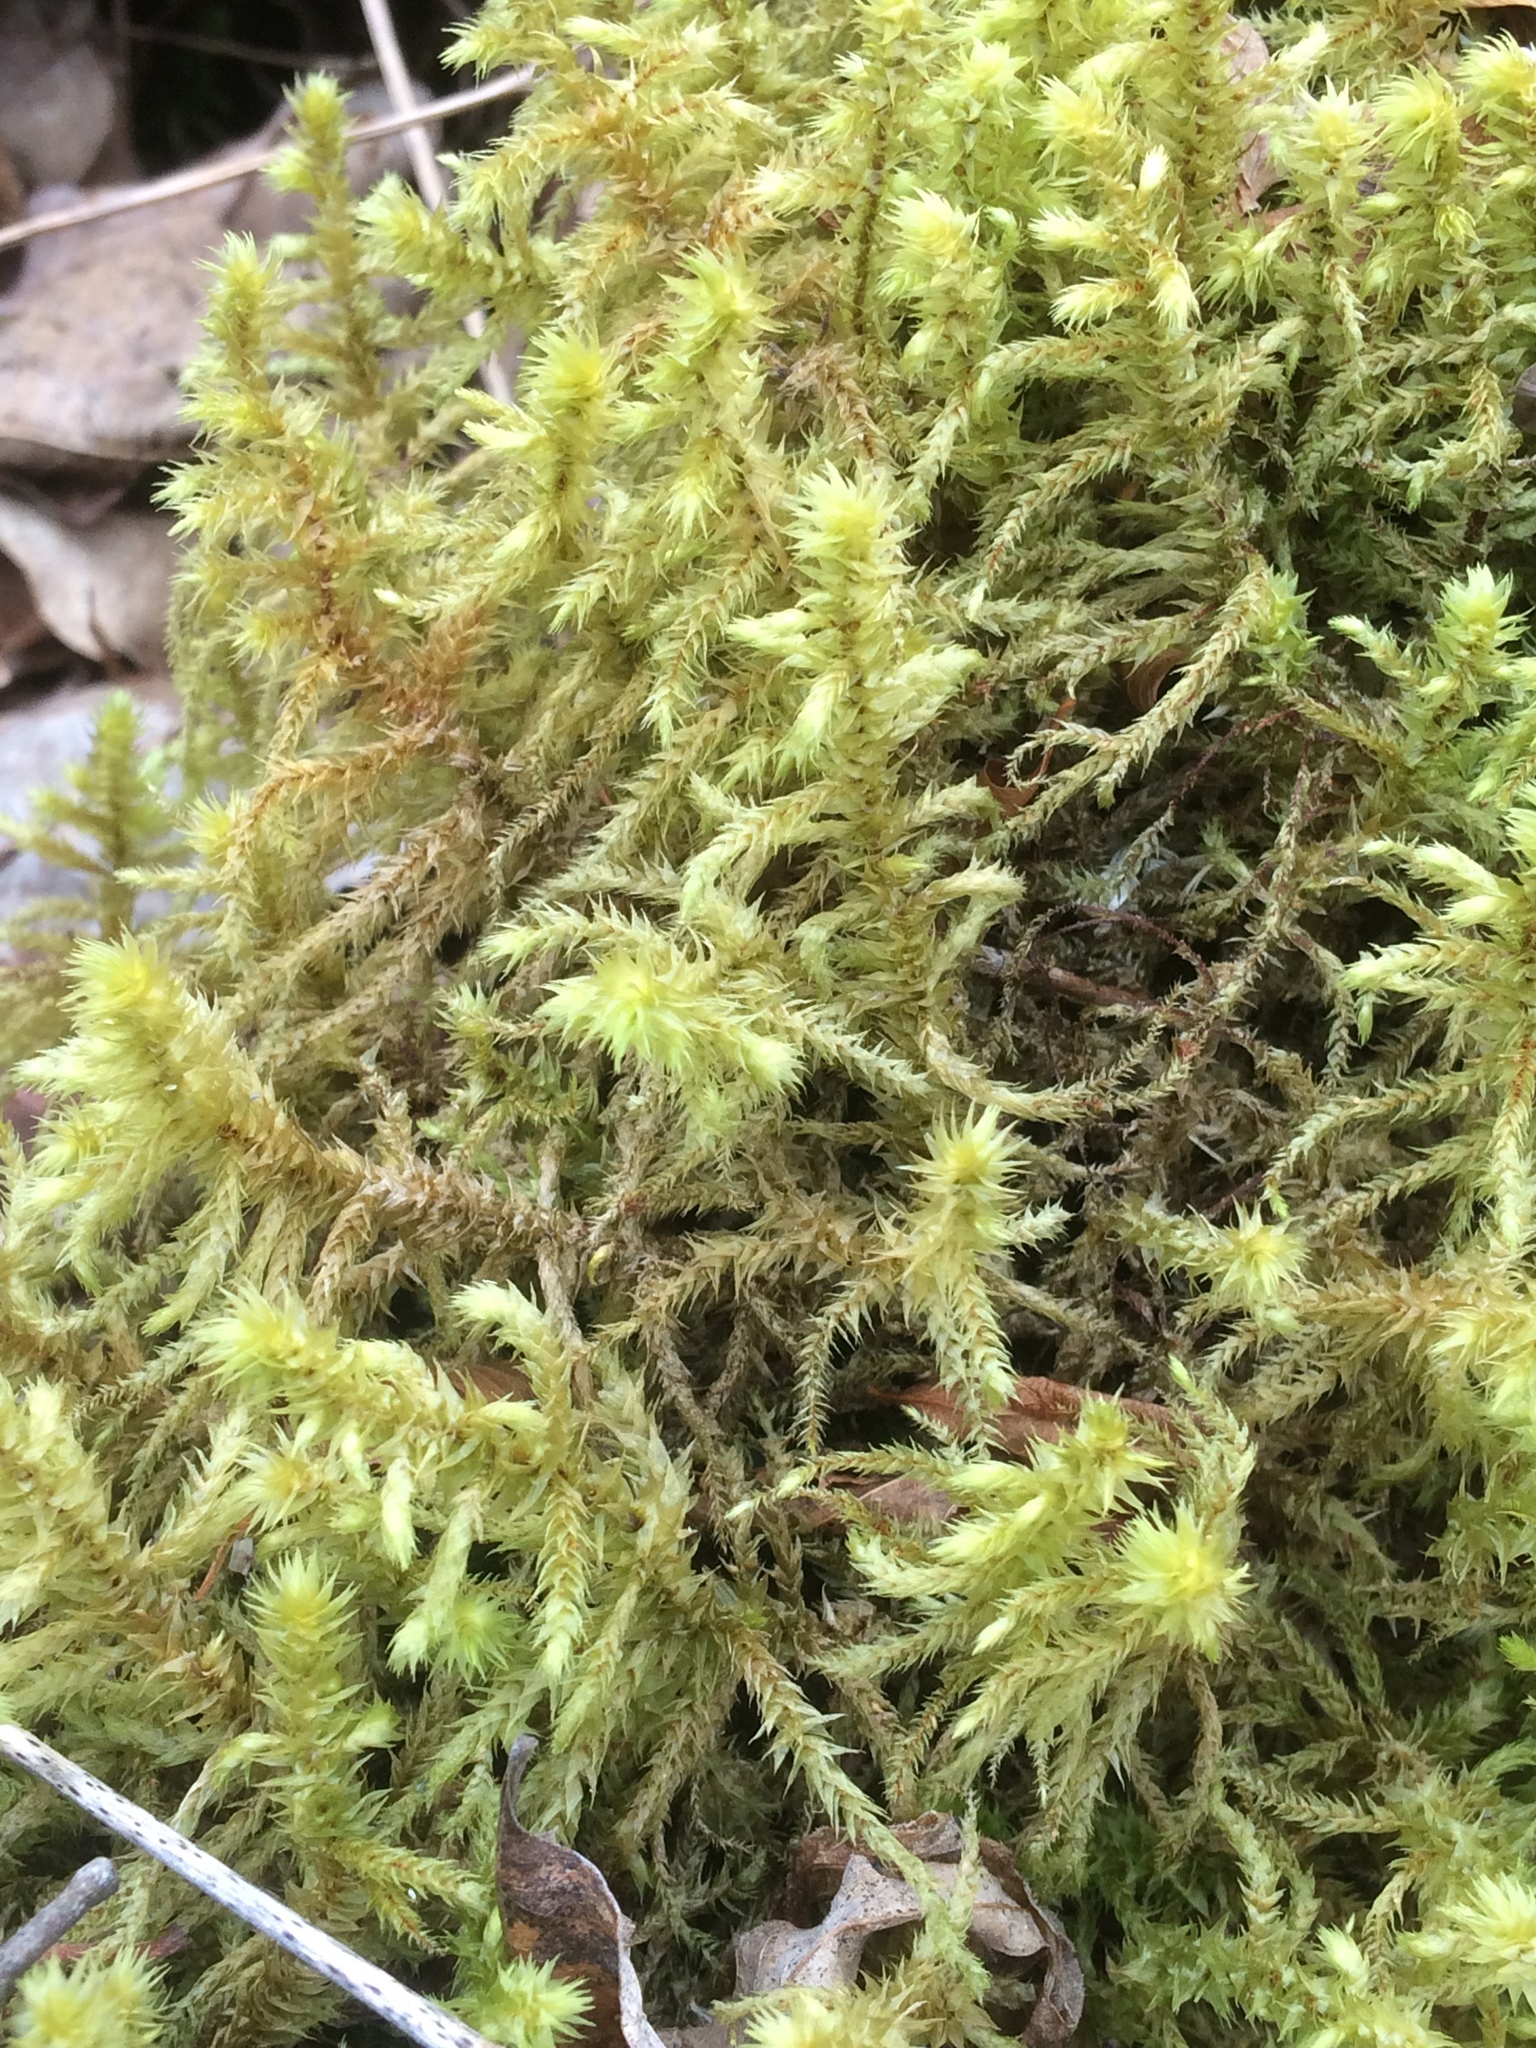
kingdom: Plantae
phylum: Bryophyta
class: Bryopsida
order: Hypnales
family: Hylocomiaceae
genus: Hylocomiadelphus
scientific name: Hylocomiadelphus triquetrus
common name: Rough goose neck moss
